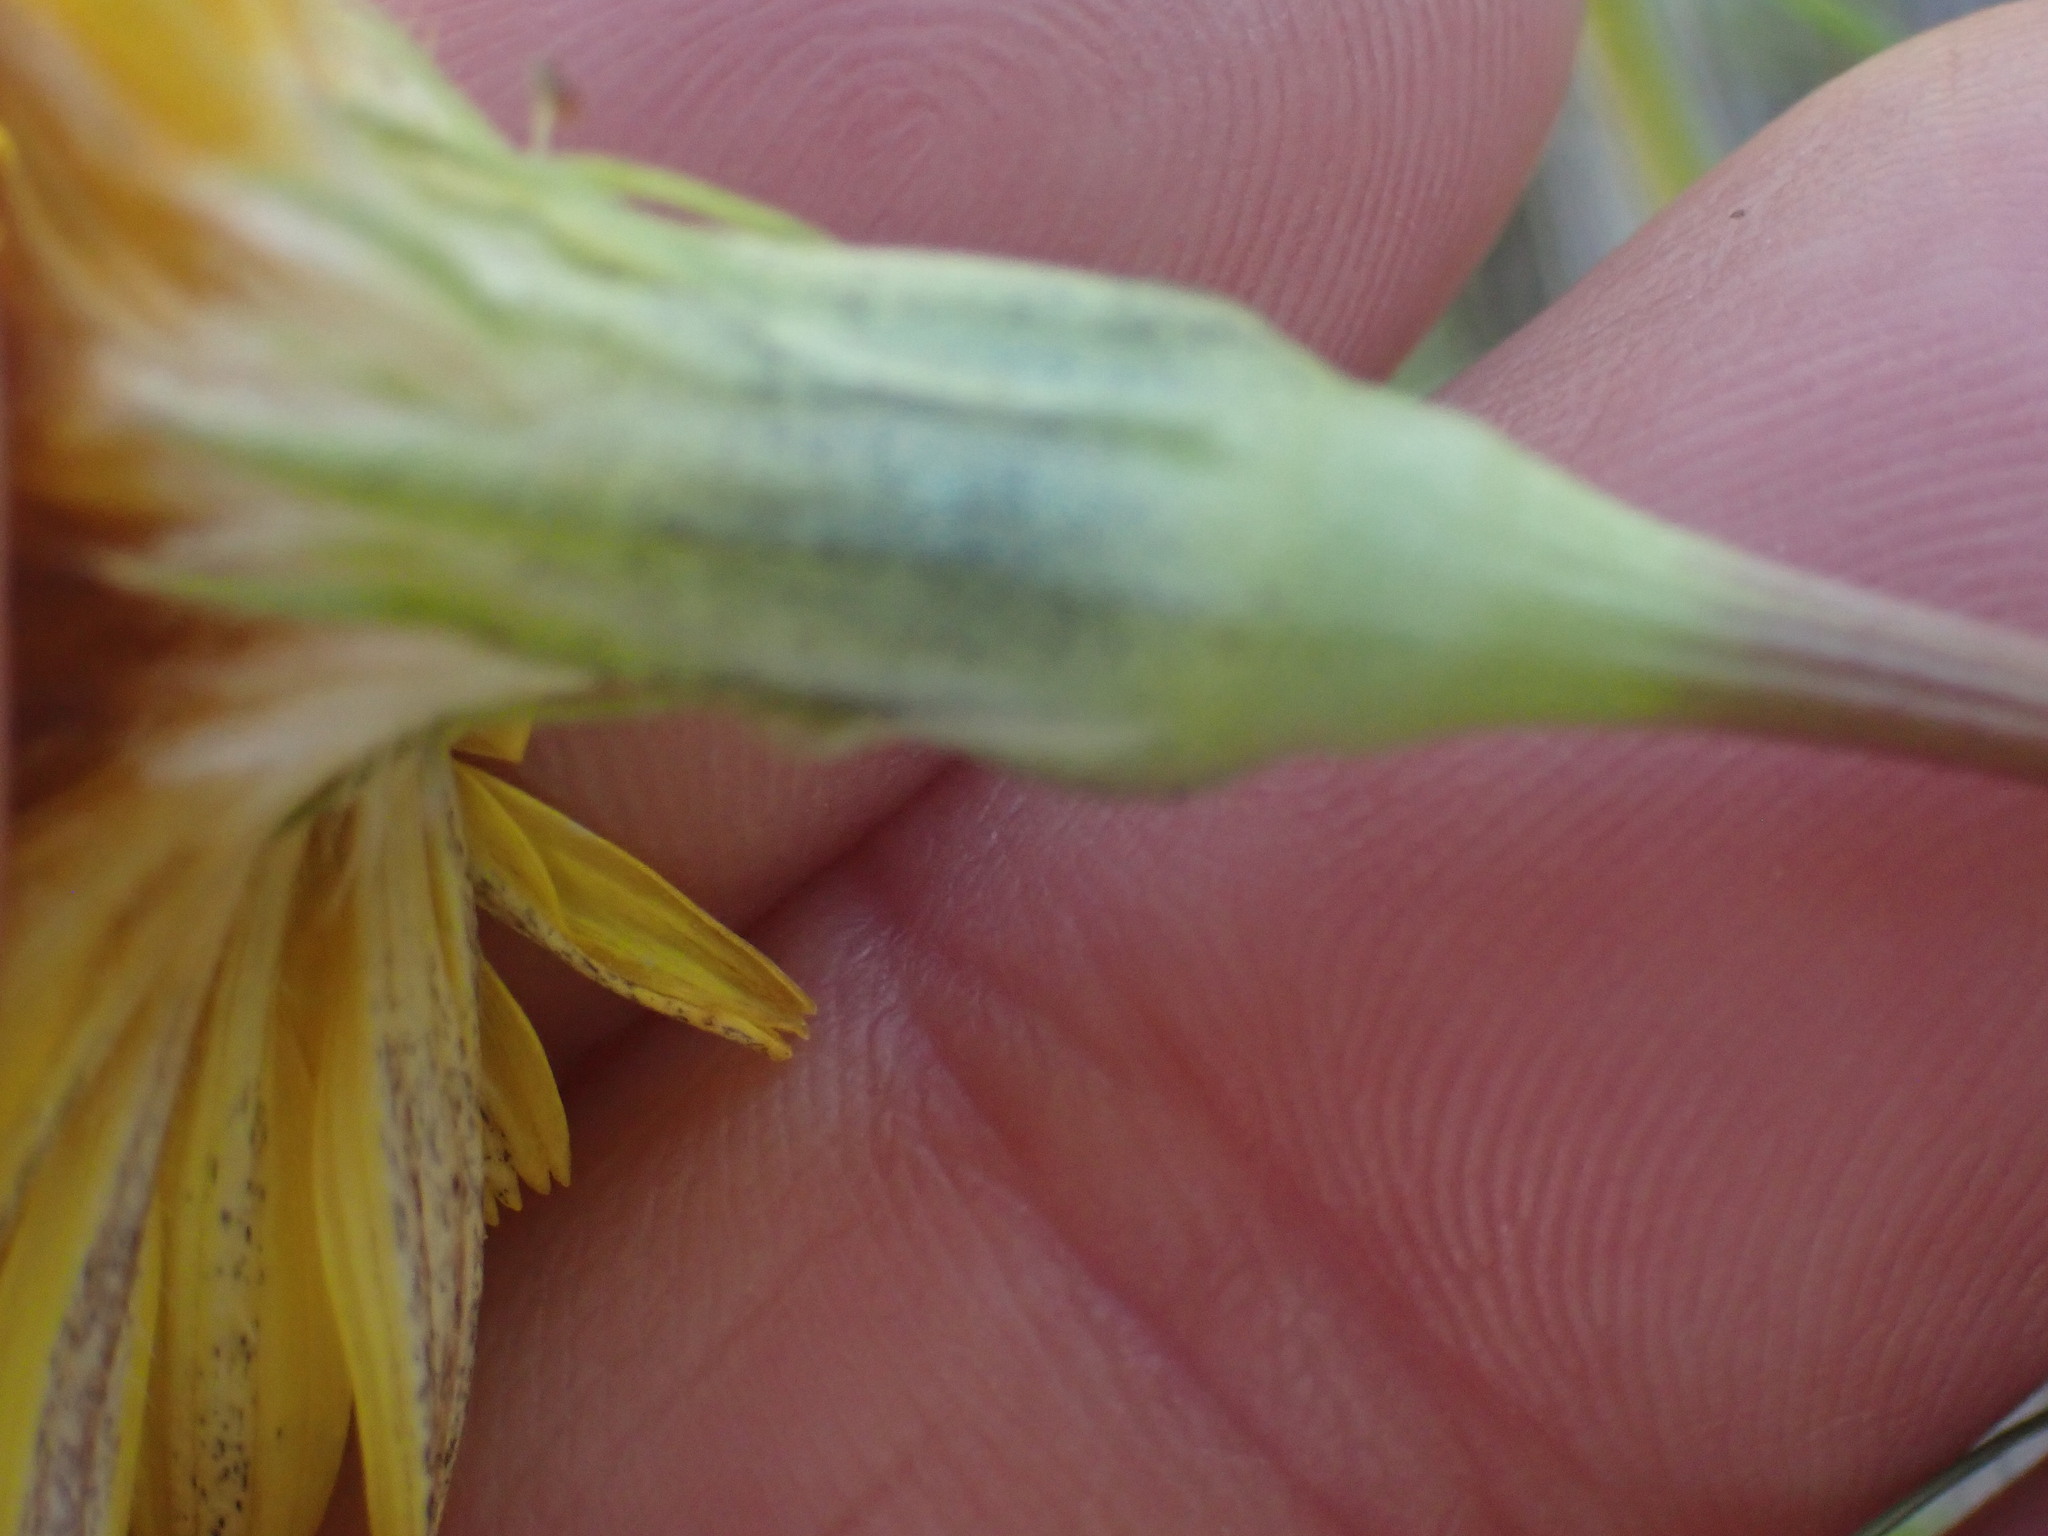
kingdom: Plantae
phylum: Tracheophyta
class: Magnoliopsida
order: Asterales
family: Asteraceae
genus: Microseris
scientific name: Microseris troximoides
